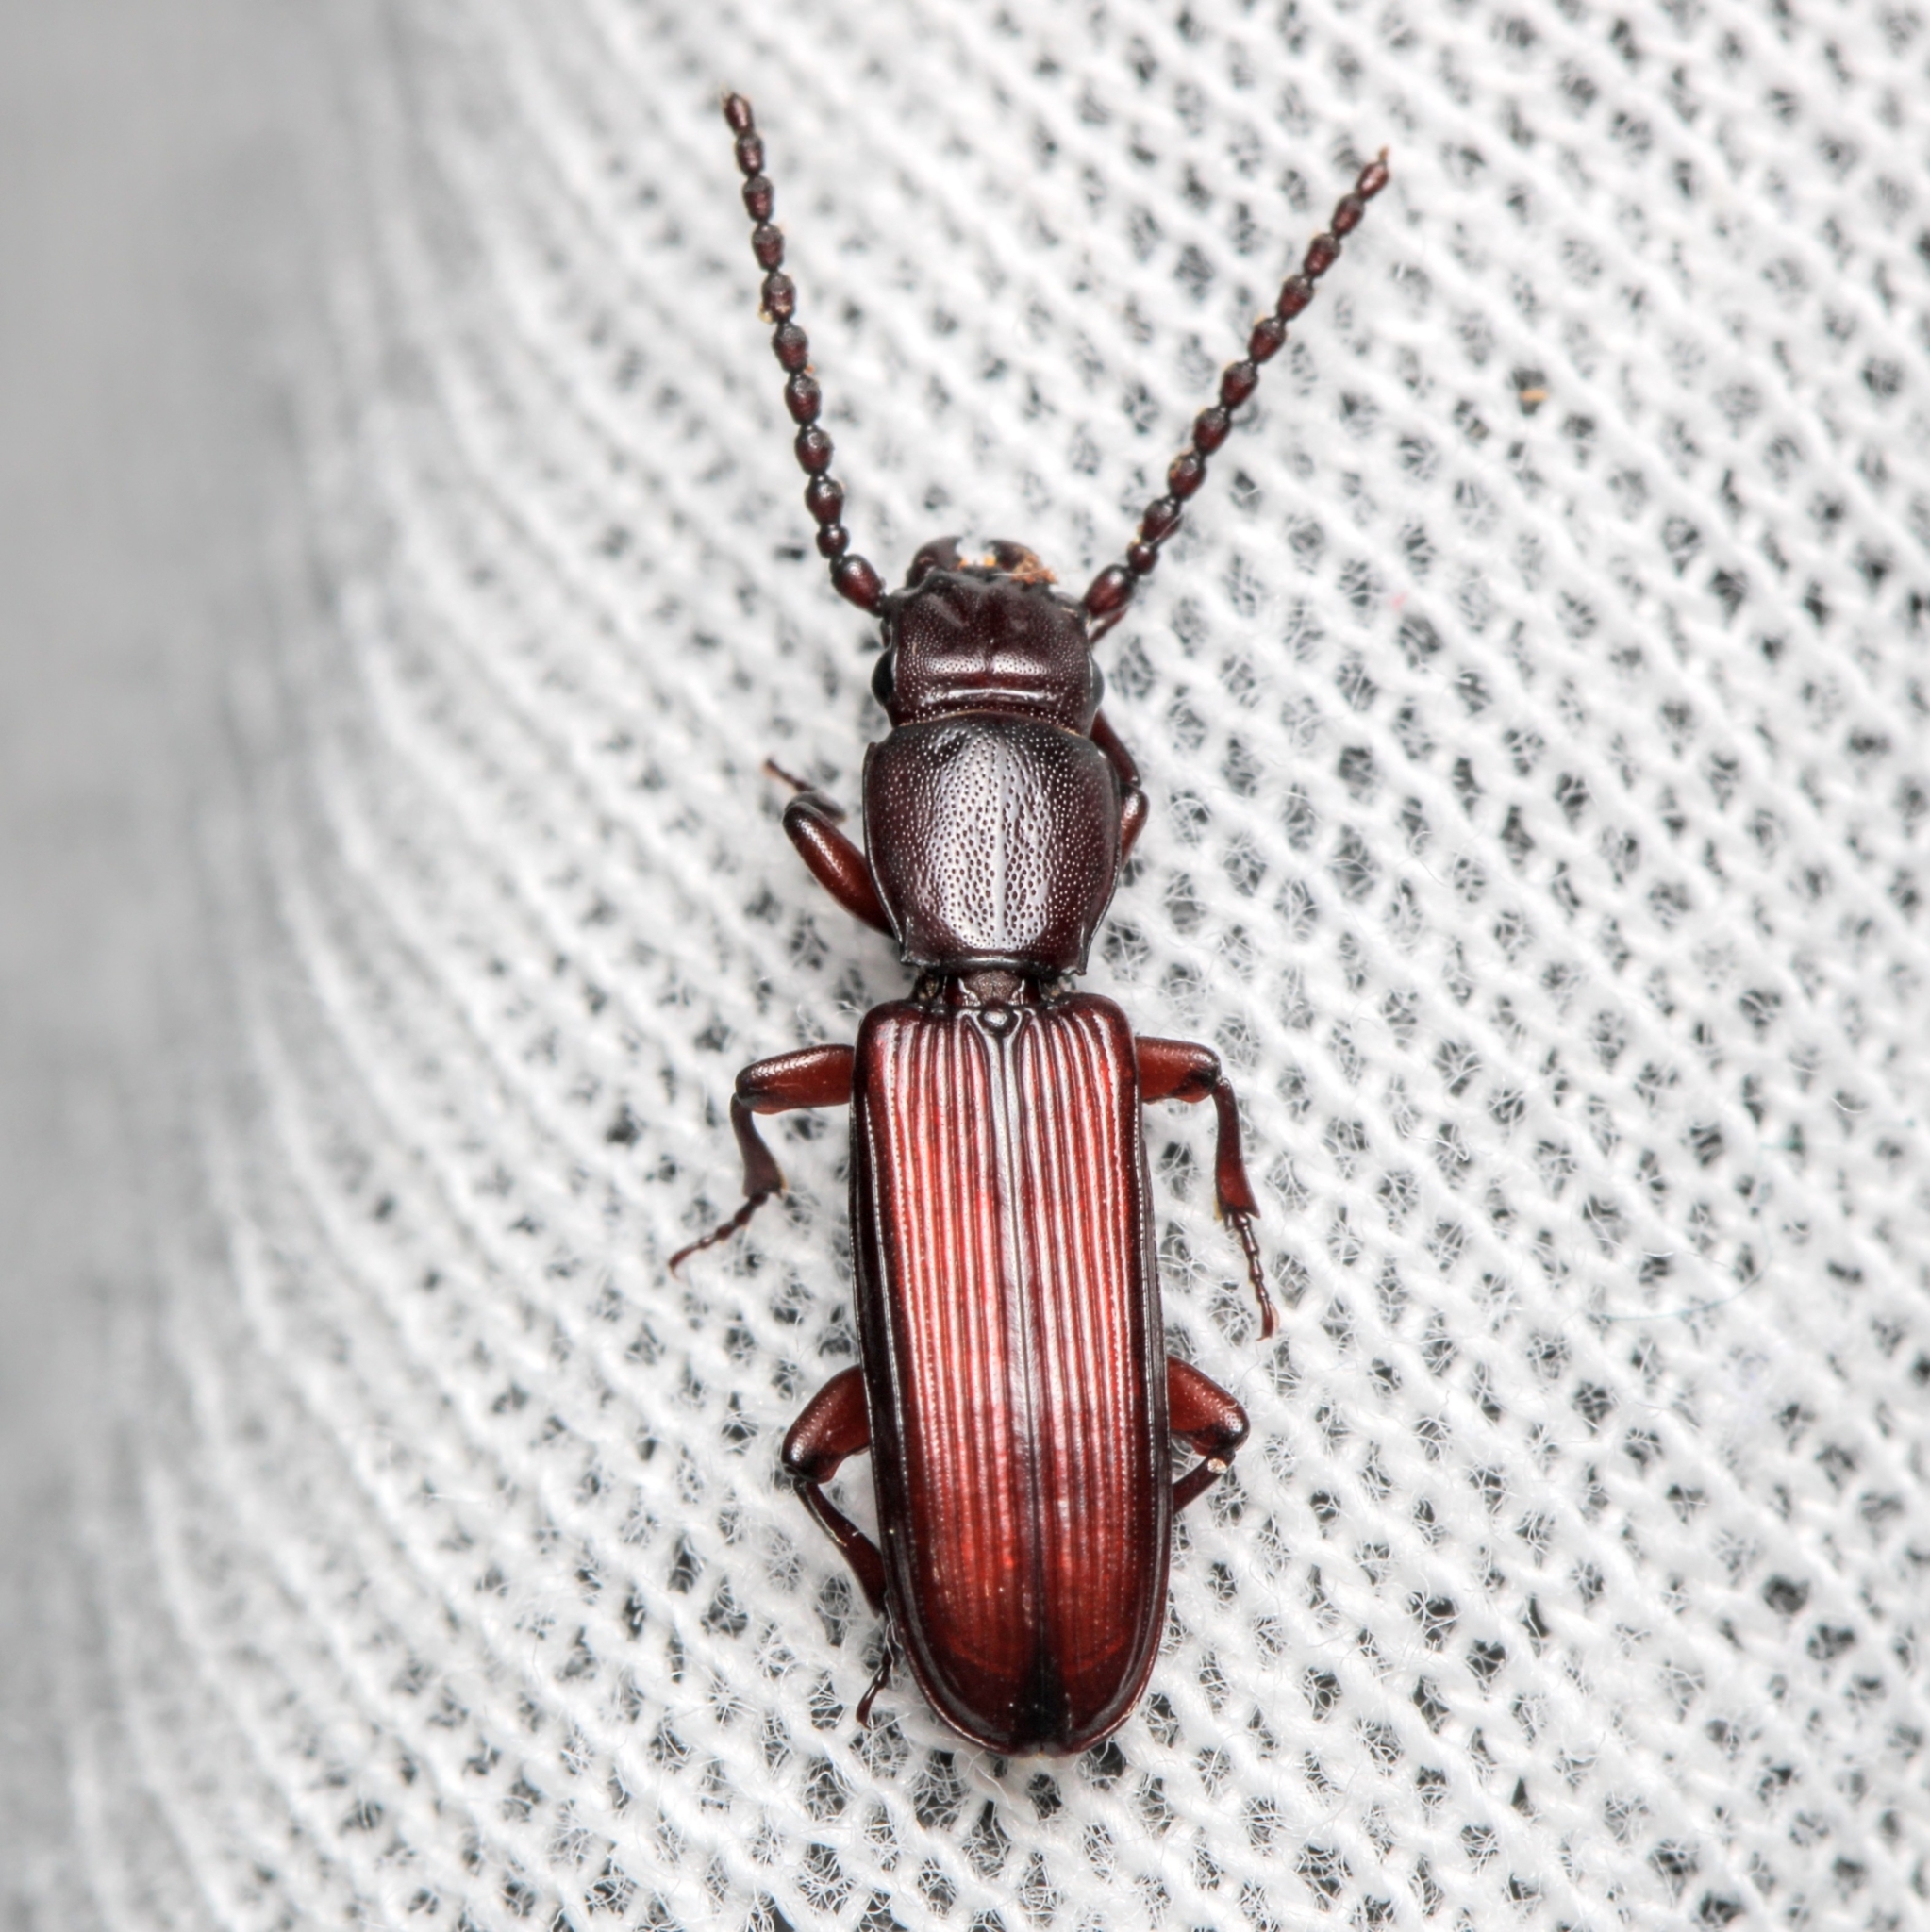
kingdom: Animalia
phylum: Arthropoda
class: Insecta
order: Coleoptera
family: Passandridae
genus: Catogenus
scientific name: Catogenus rufus
